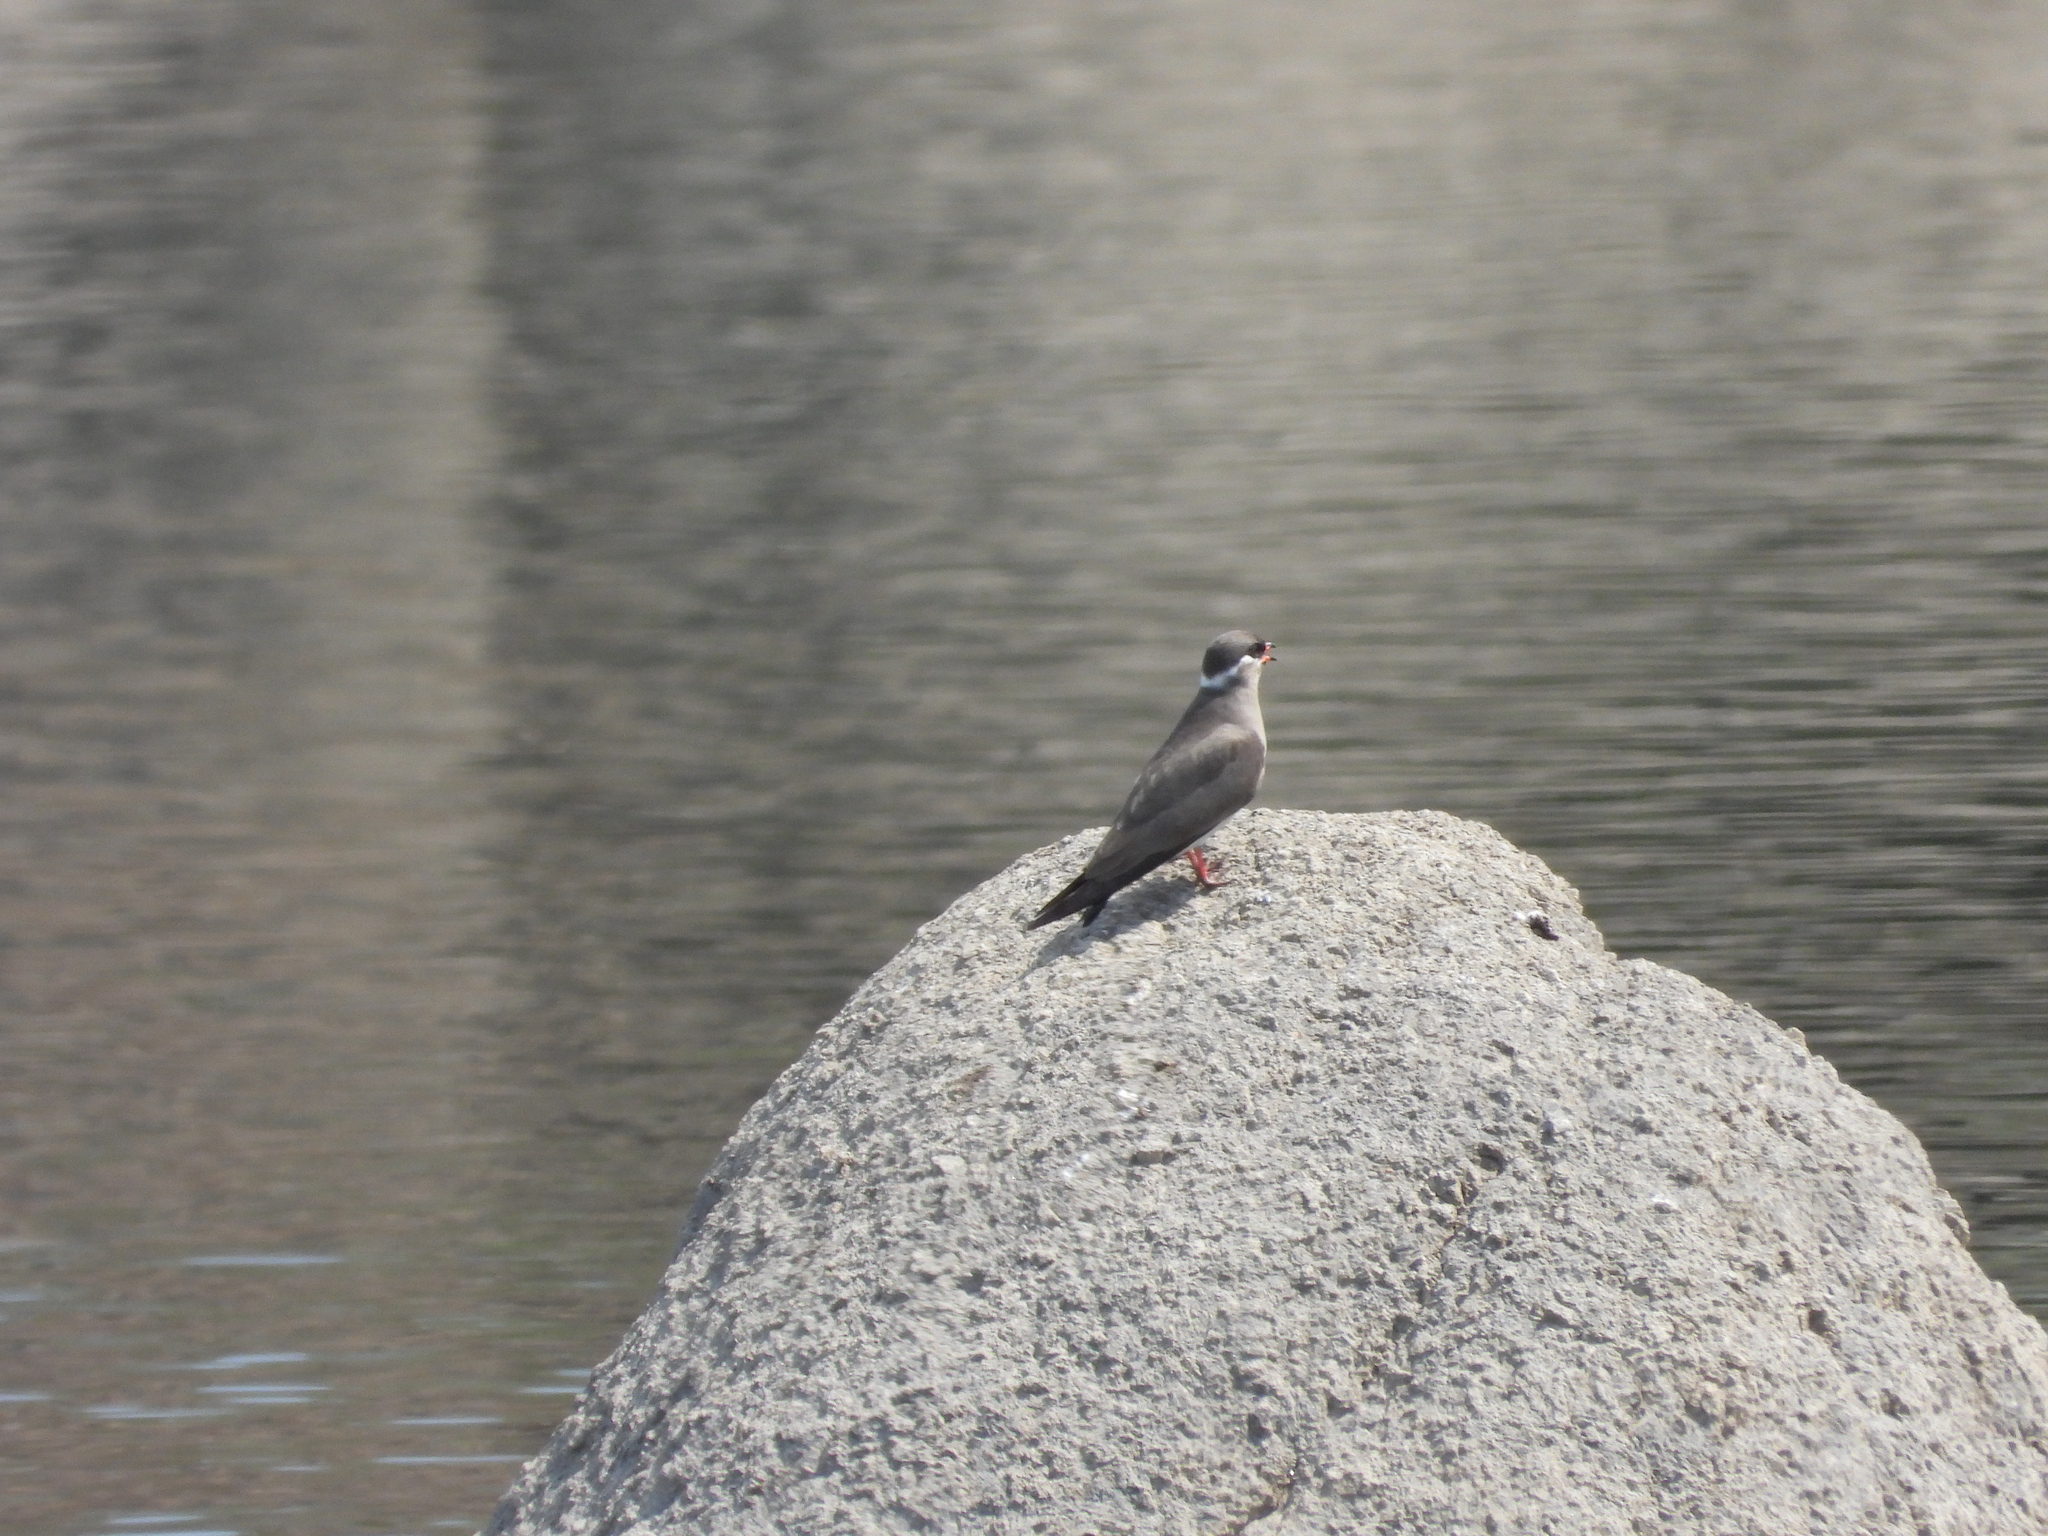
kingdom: Animalia
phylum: Chordata
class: Aves
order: Charadriiformes
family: Glareolidae
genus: Glareola
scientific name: Glareola nuchalis
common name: Rock pratincole
